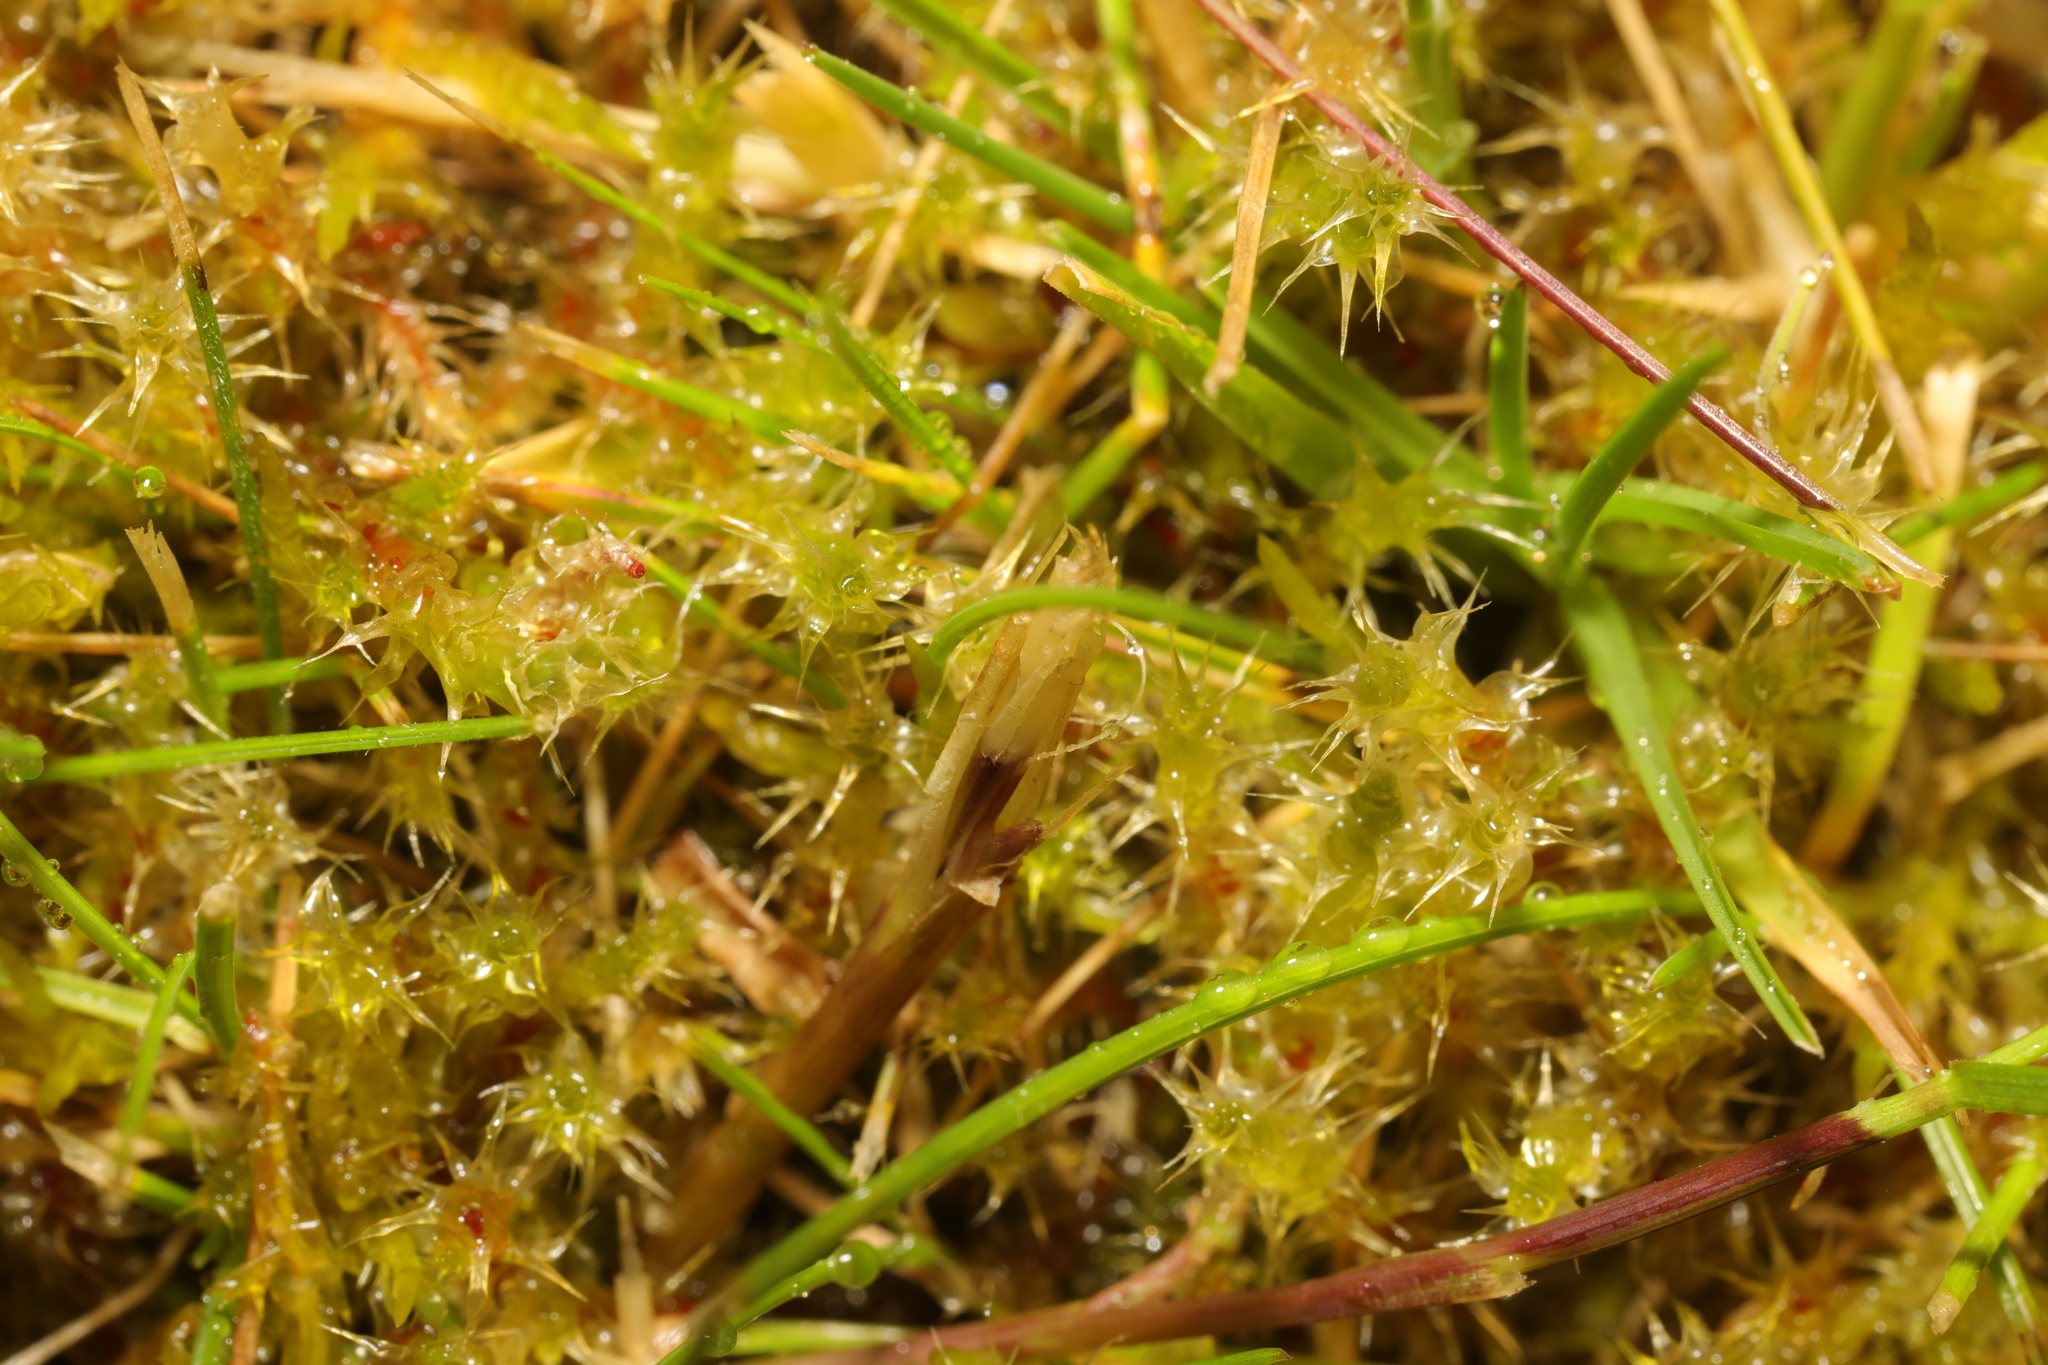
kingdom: Plantae
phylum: Bryophyta
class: Bryopsida
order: Hypnales
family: Hylocomiaceae
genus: Rhytidiadelphus
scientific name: Rhytidiadelphus squarrosus
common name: Springy turf-moss
